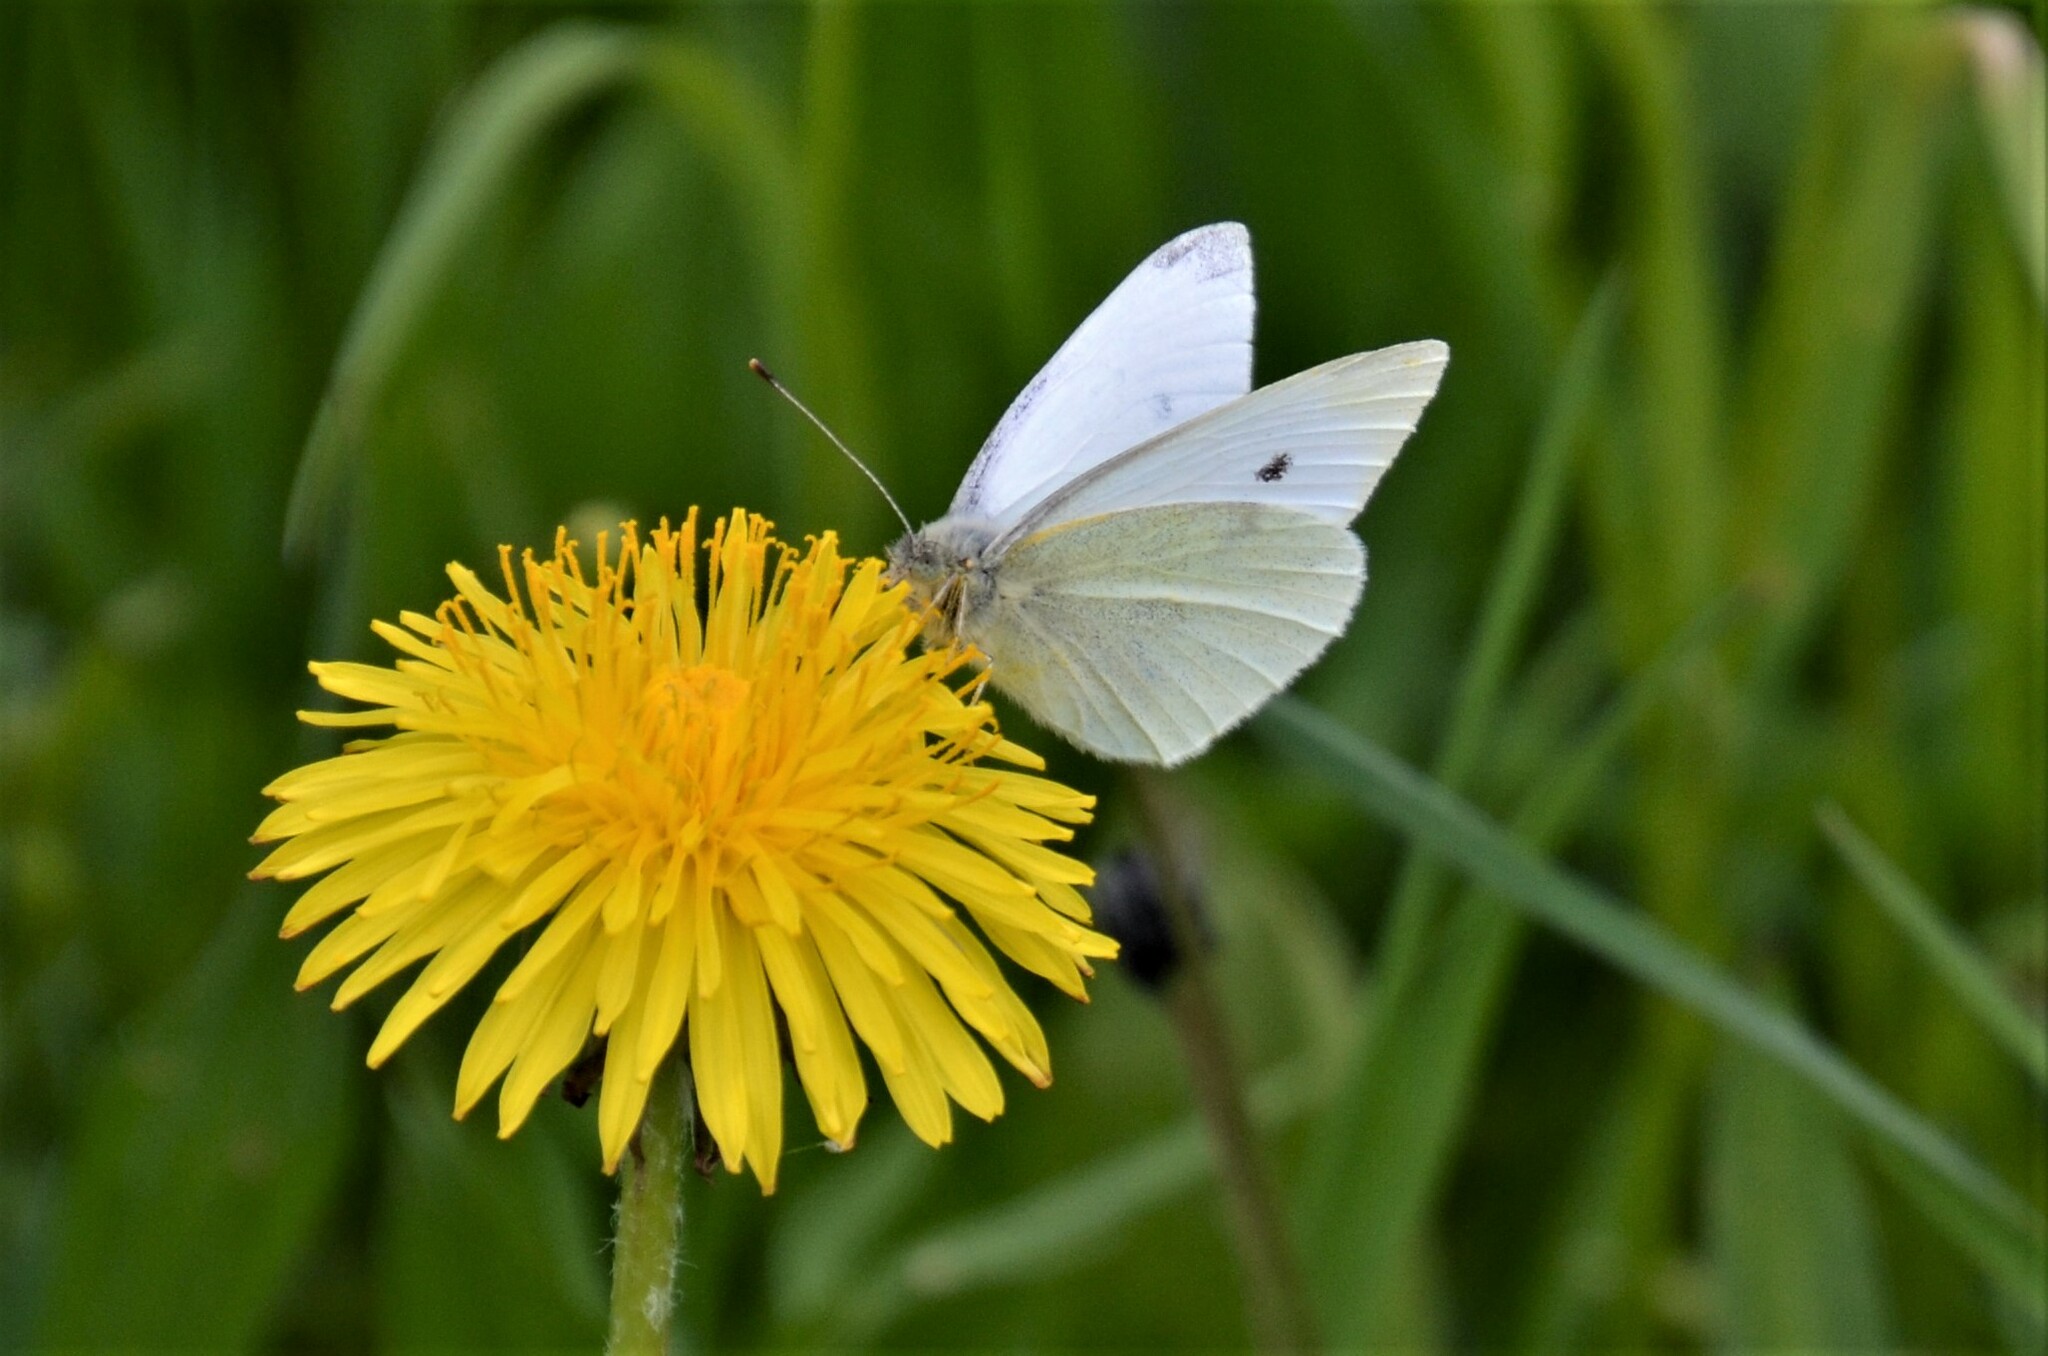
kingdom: Animalia
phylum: Arthropoda
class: Insecta
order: Lepidoptera
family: Pieridae
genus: Pieris
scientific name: Pieris rapae
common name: Small white
